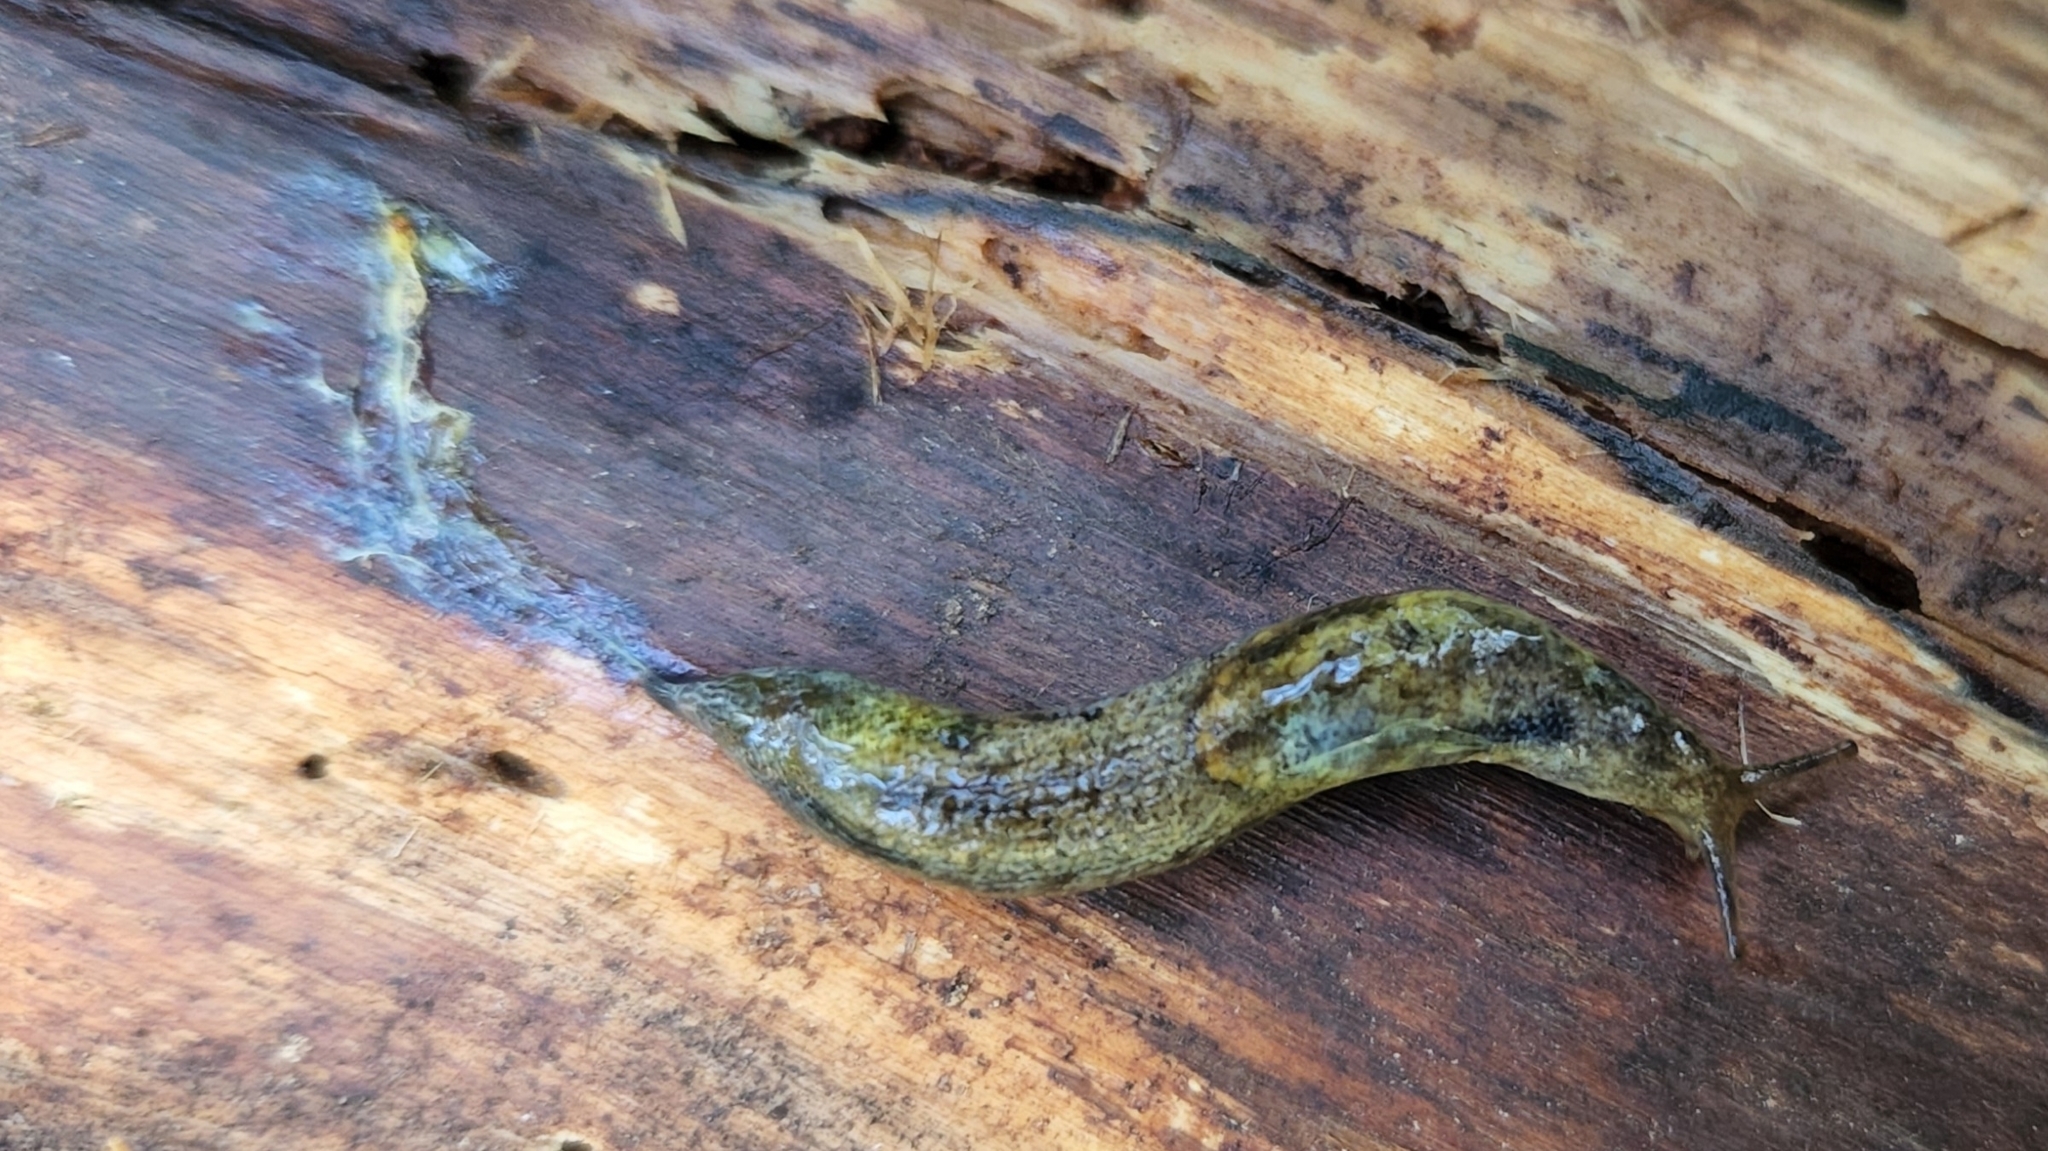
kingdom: Animalia
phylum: Mollusca
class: Gastropoda
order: Stylommatophora
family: Ariolimacidae
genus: Prophysaon
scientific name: Prophysaon vanattae
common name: Scarletback taildropper
